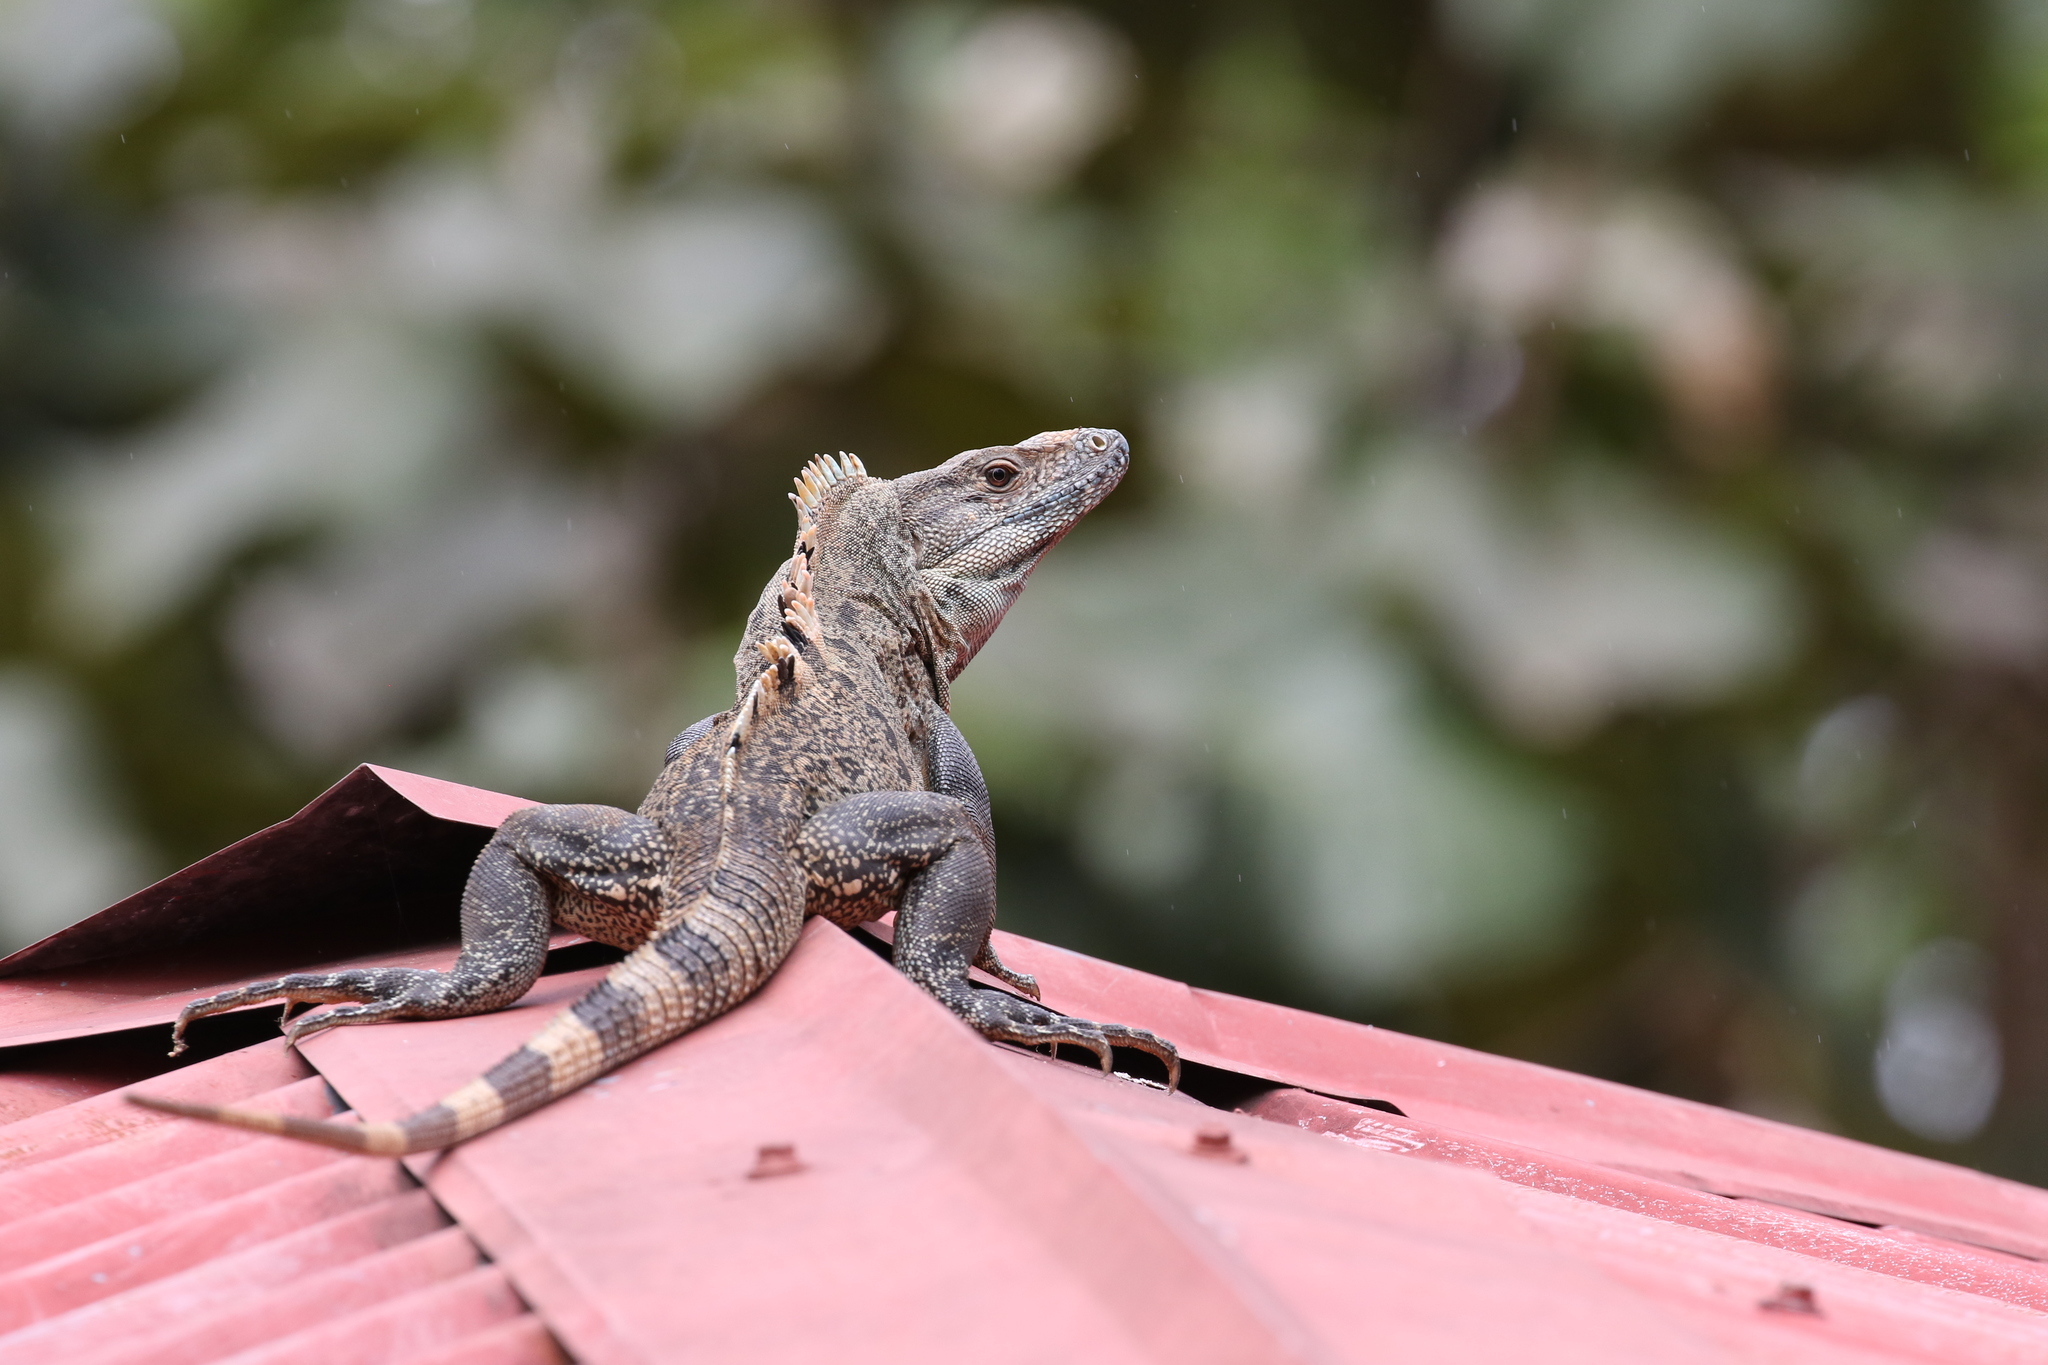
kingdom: Animalia
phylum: Chordata
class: Squamata
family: Iguanidae
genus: Ctenosaura
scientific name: Ctenosaura similis
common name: Black spiny-tailed iguana
